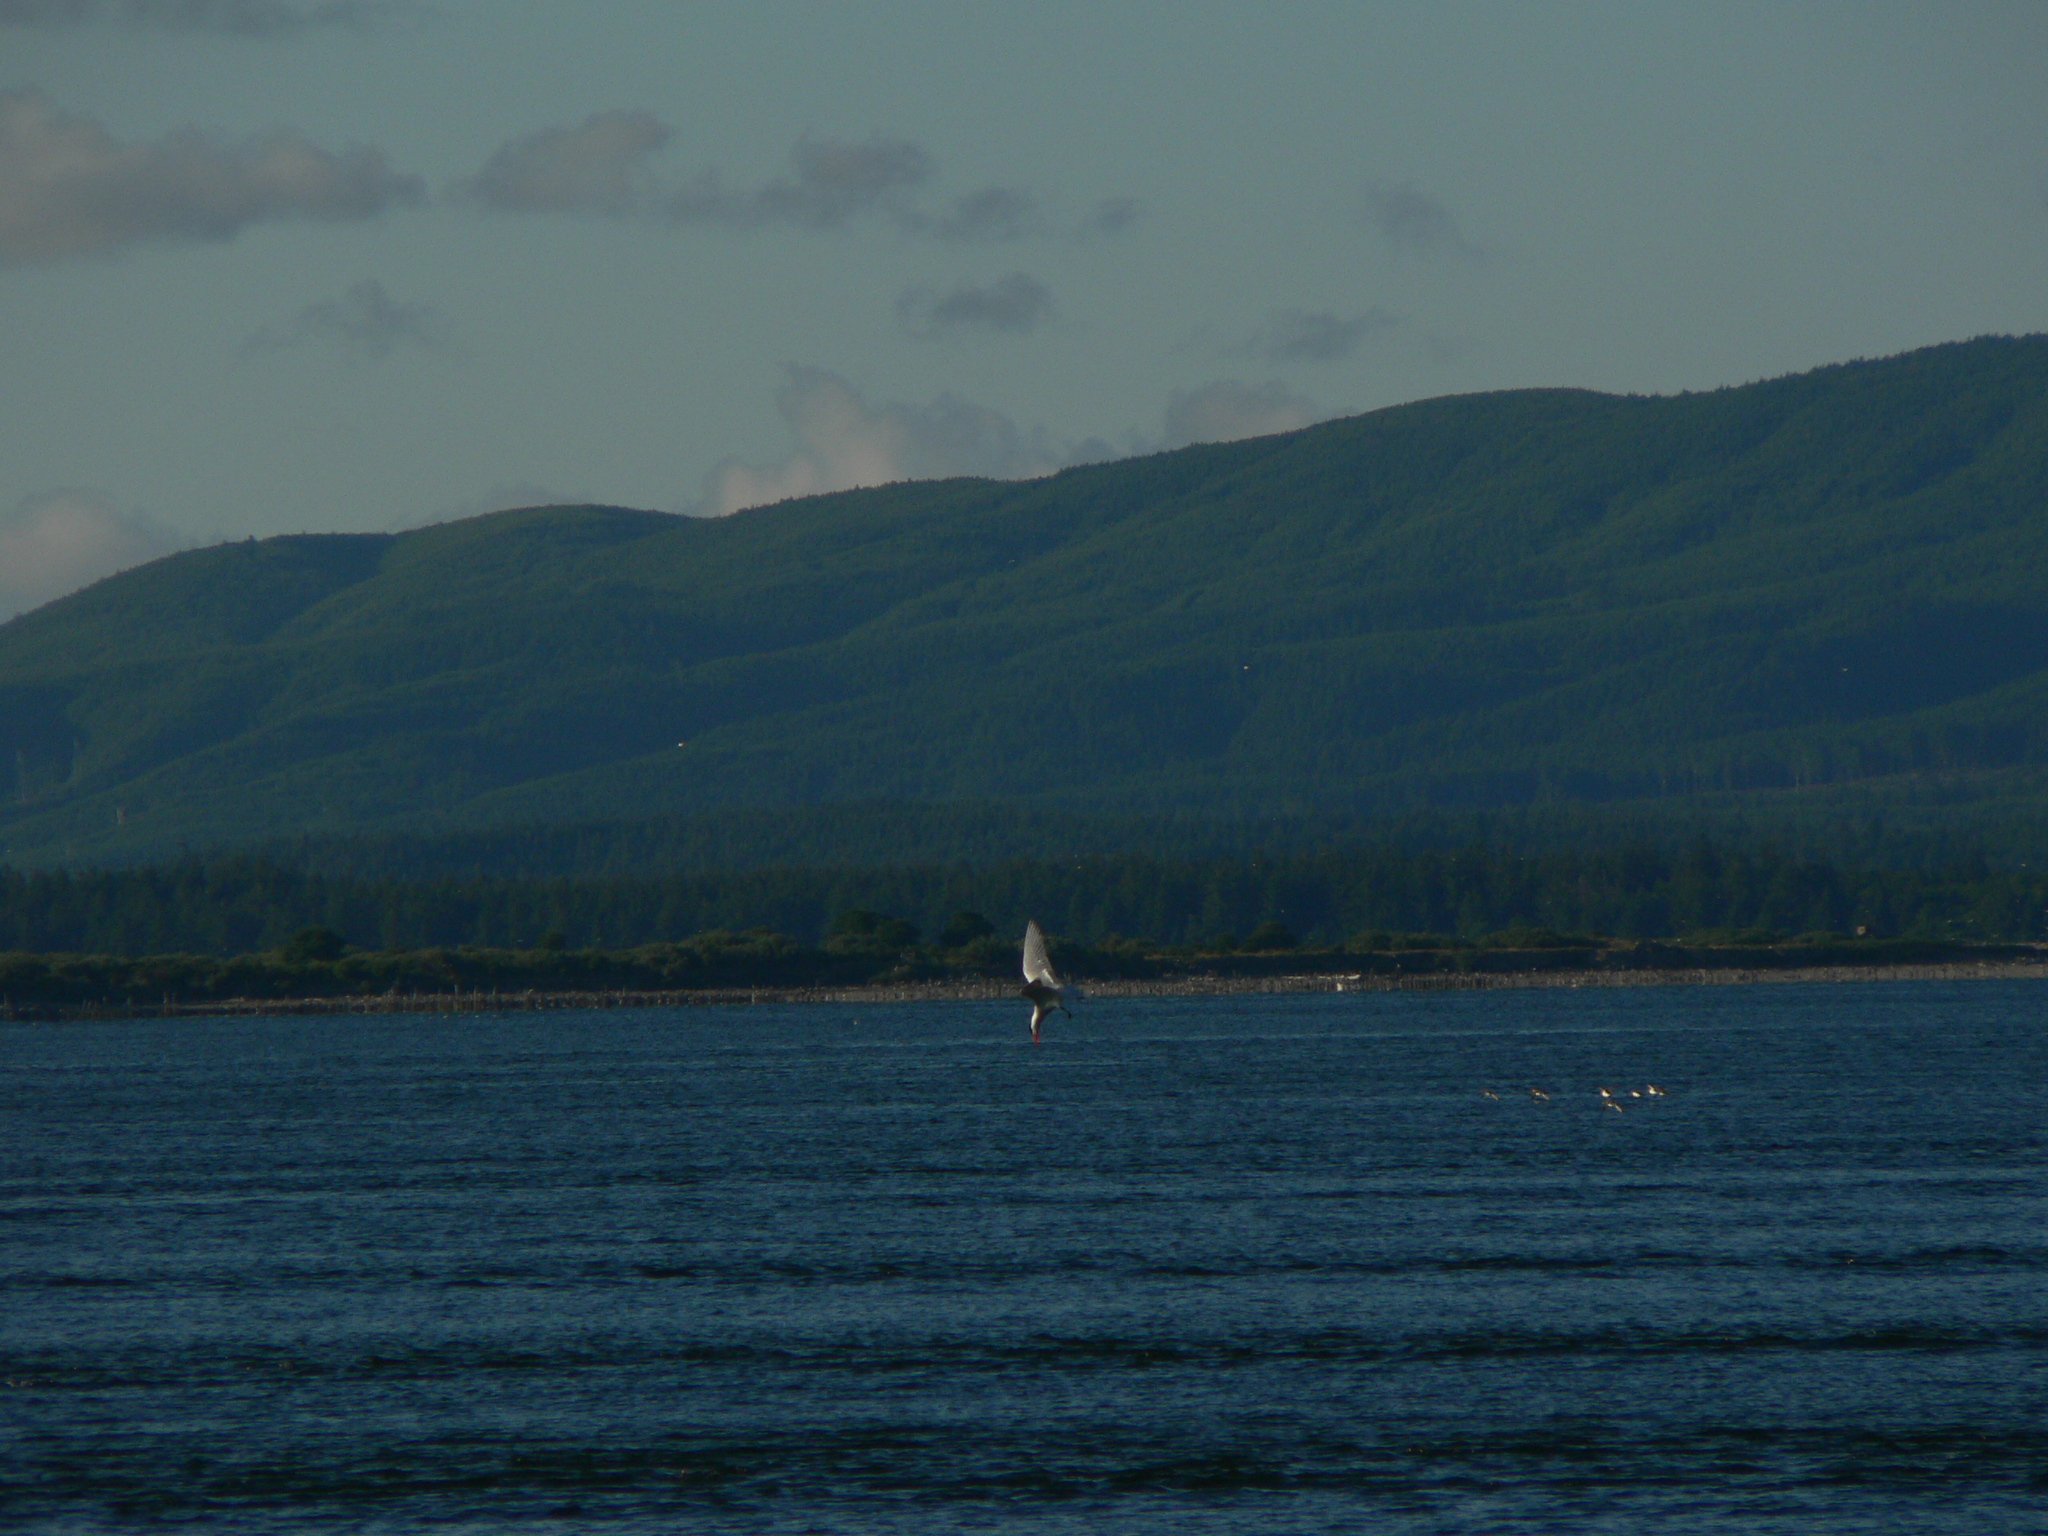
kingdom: Animalia
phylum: Chordata
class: Aves
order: Charadriiformes
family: Laridae
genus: Hydroprogne
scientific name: Hydroprogne caspia
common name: Caspian tern
